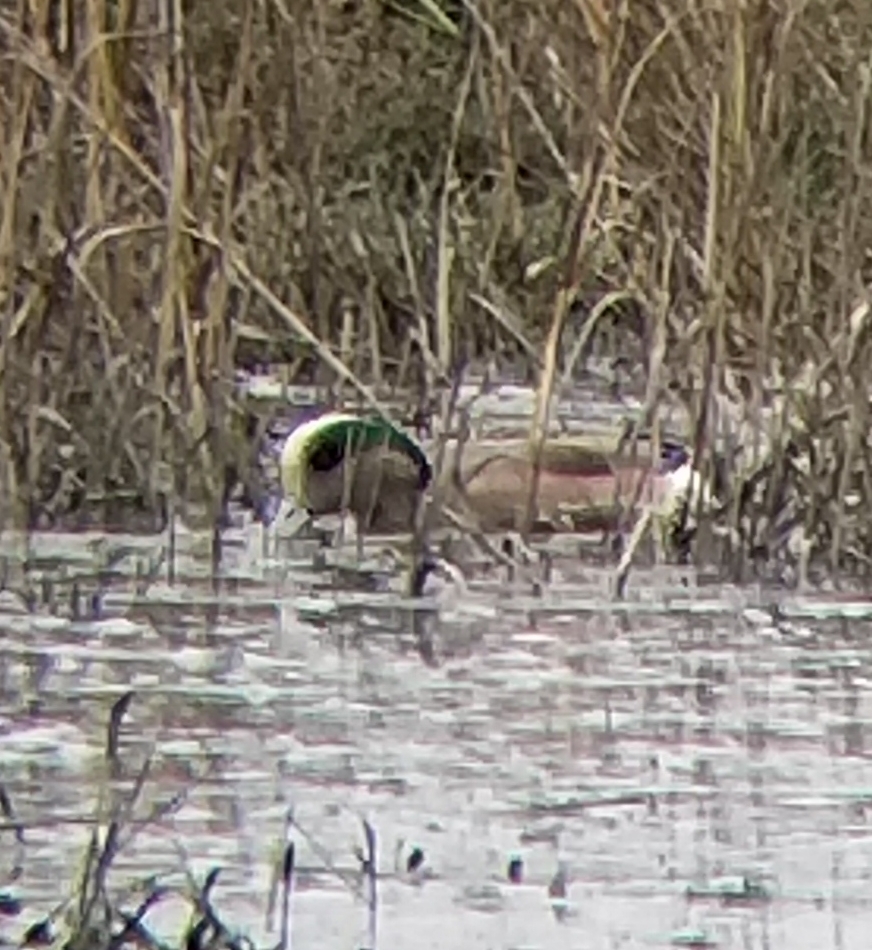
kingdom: Animalia
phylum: Chordata
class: Aves
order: Anseriformes
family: Anatidae
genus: Mareca
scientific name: Mareca americana
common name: American wigeon
